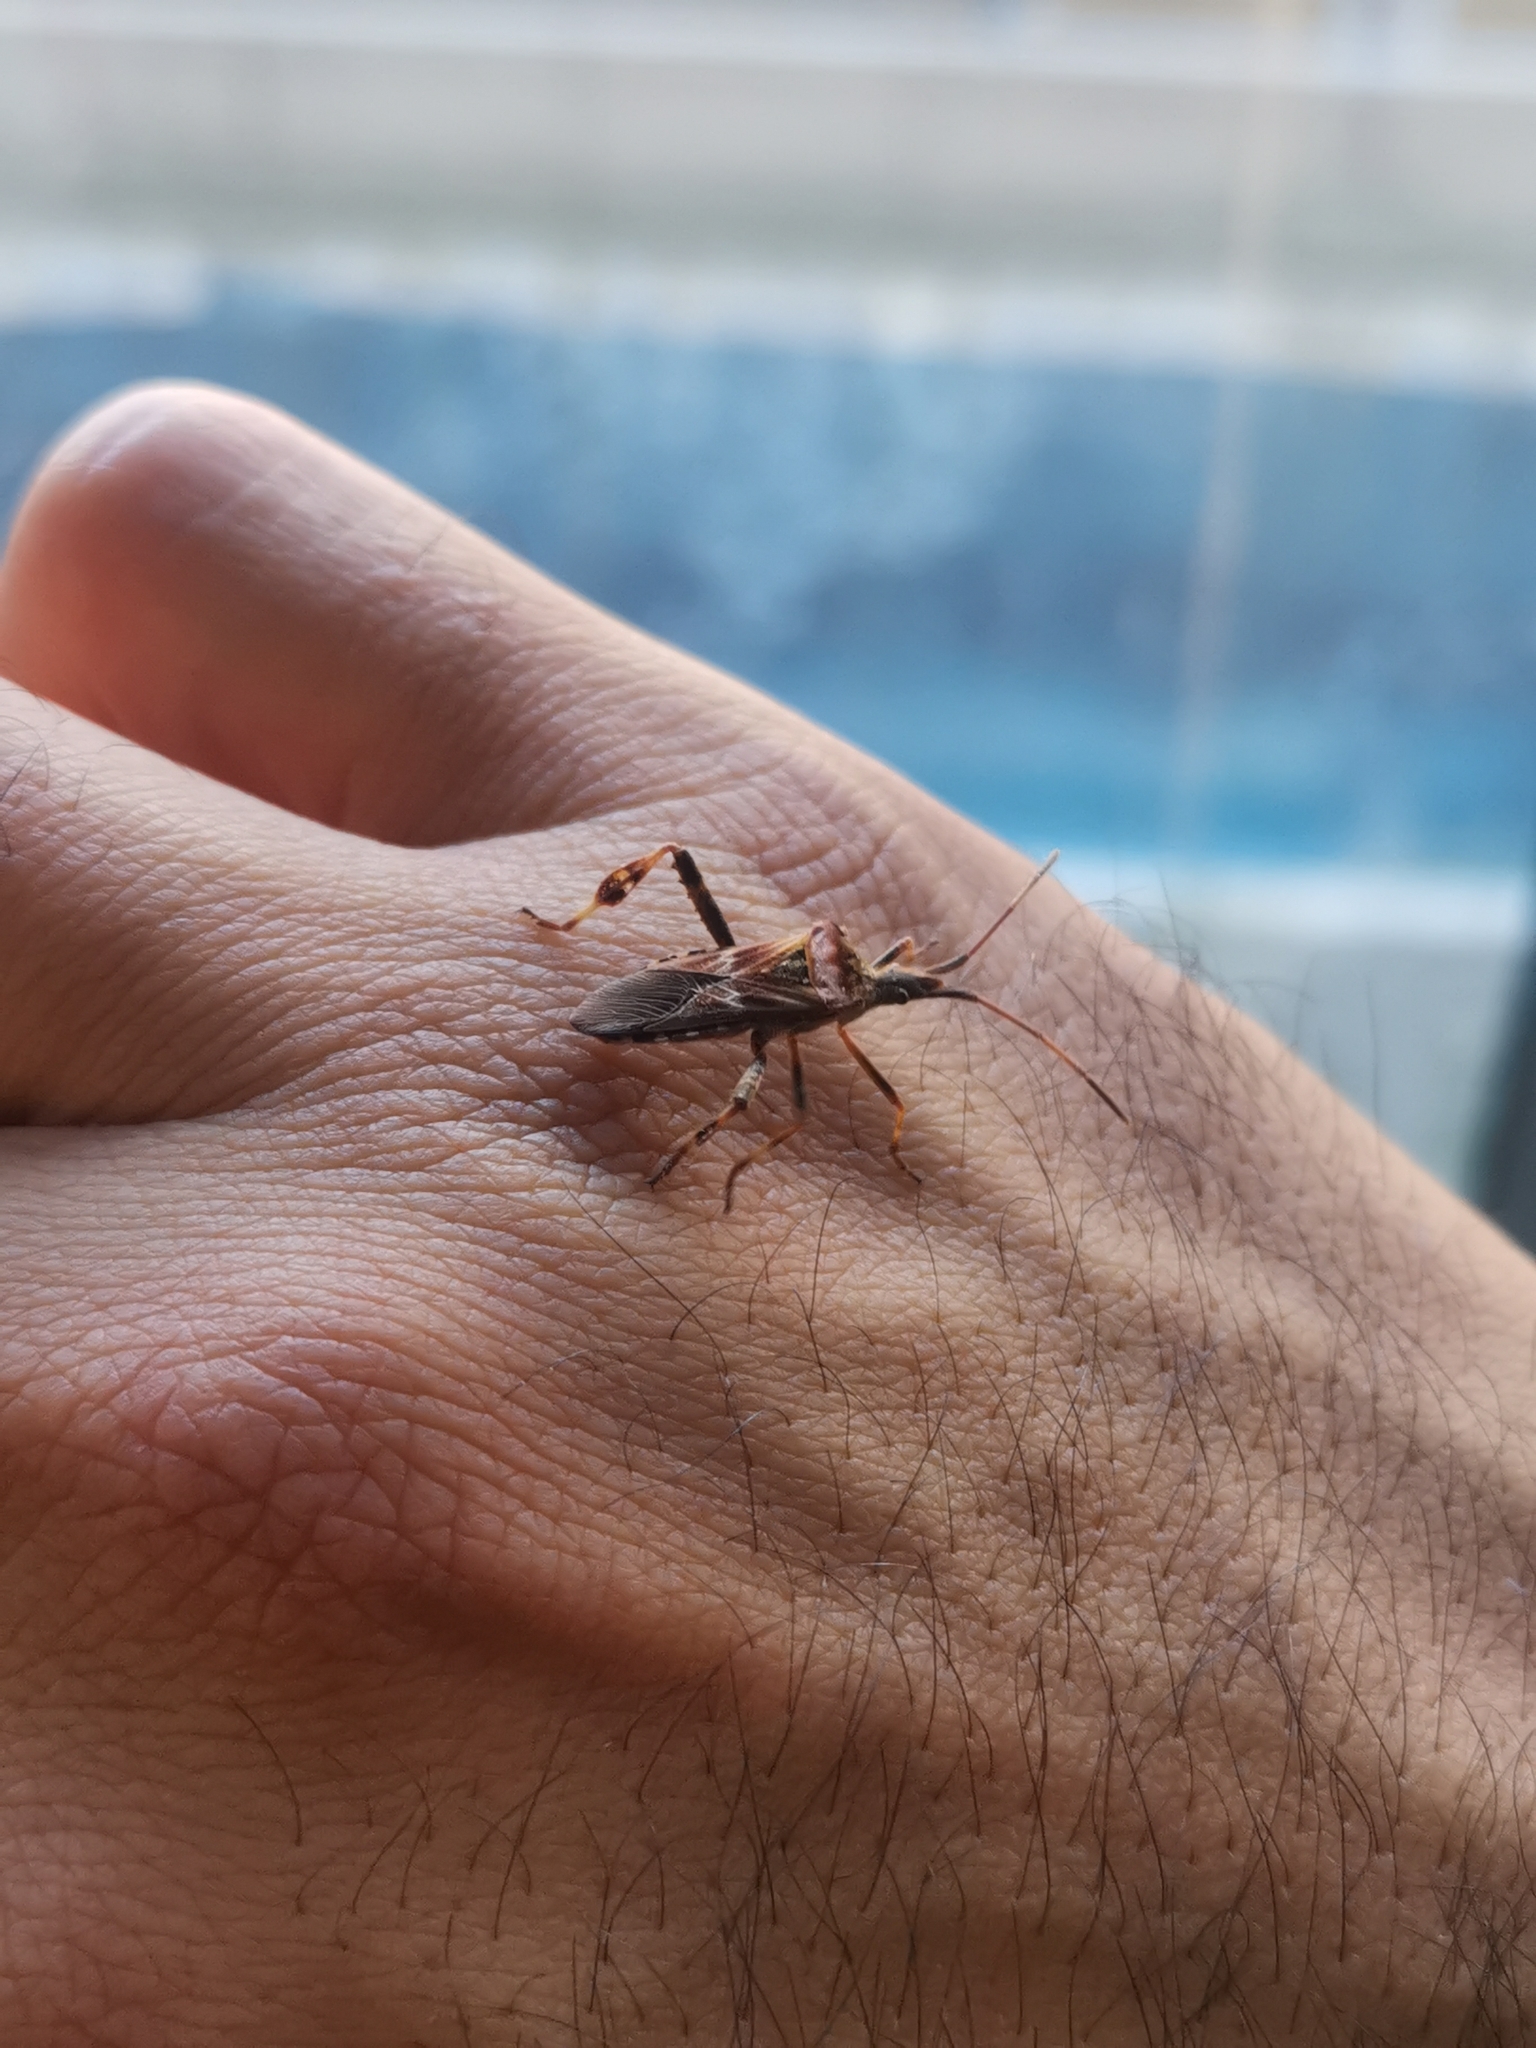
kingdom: Animalia
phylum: Arthropoda
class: Insecta
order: Hemiptera
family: Coreidae
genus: Leptoglossus
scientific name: Leptoglossus occidentalis
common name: Western conifer-seed bug
